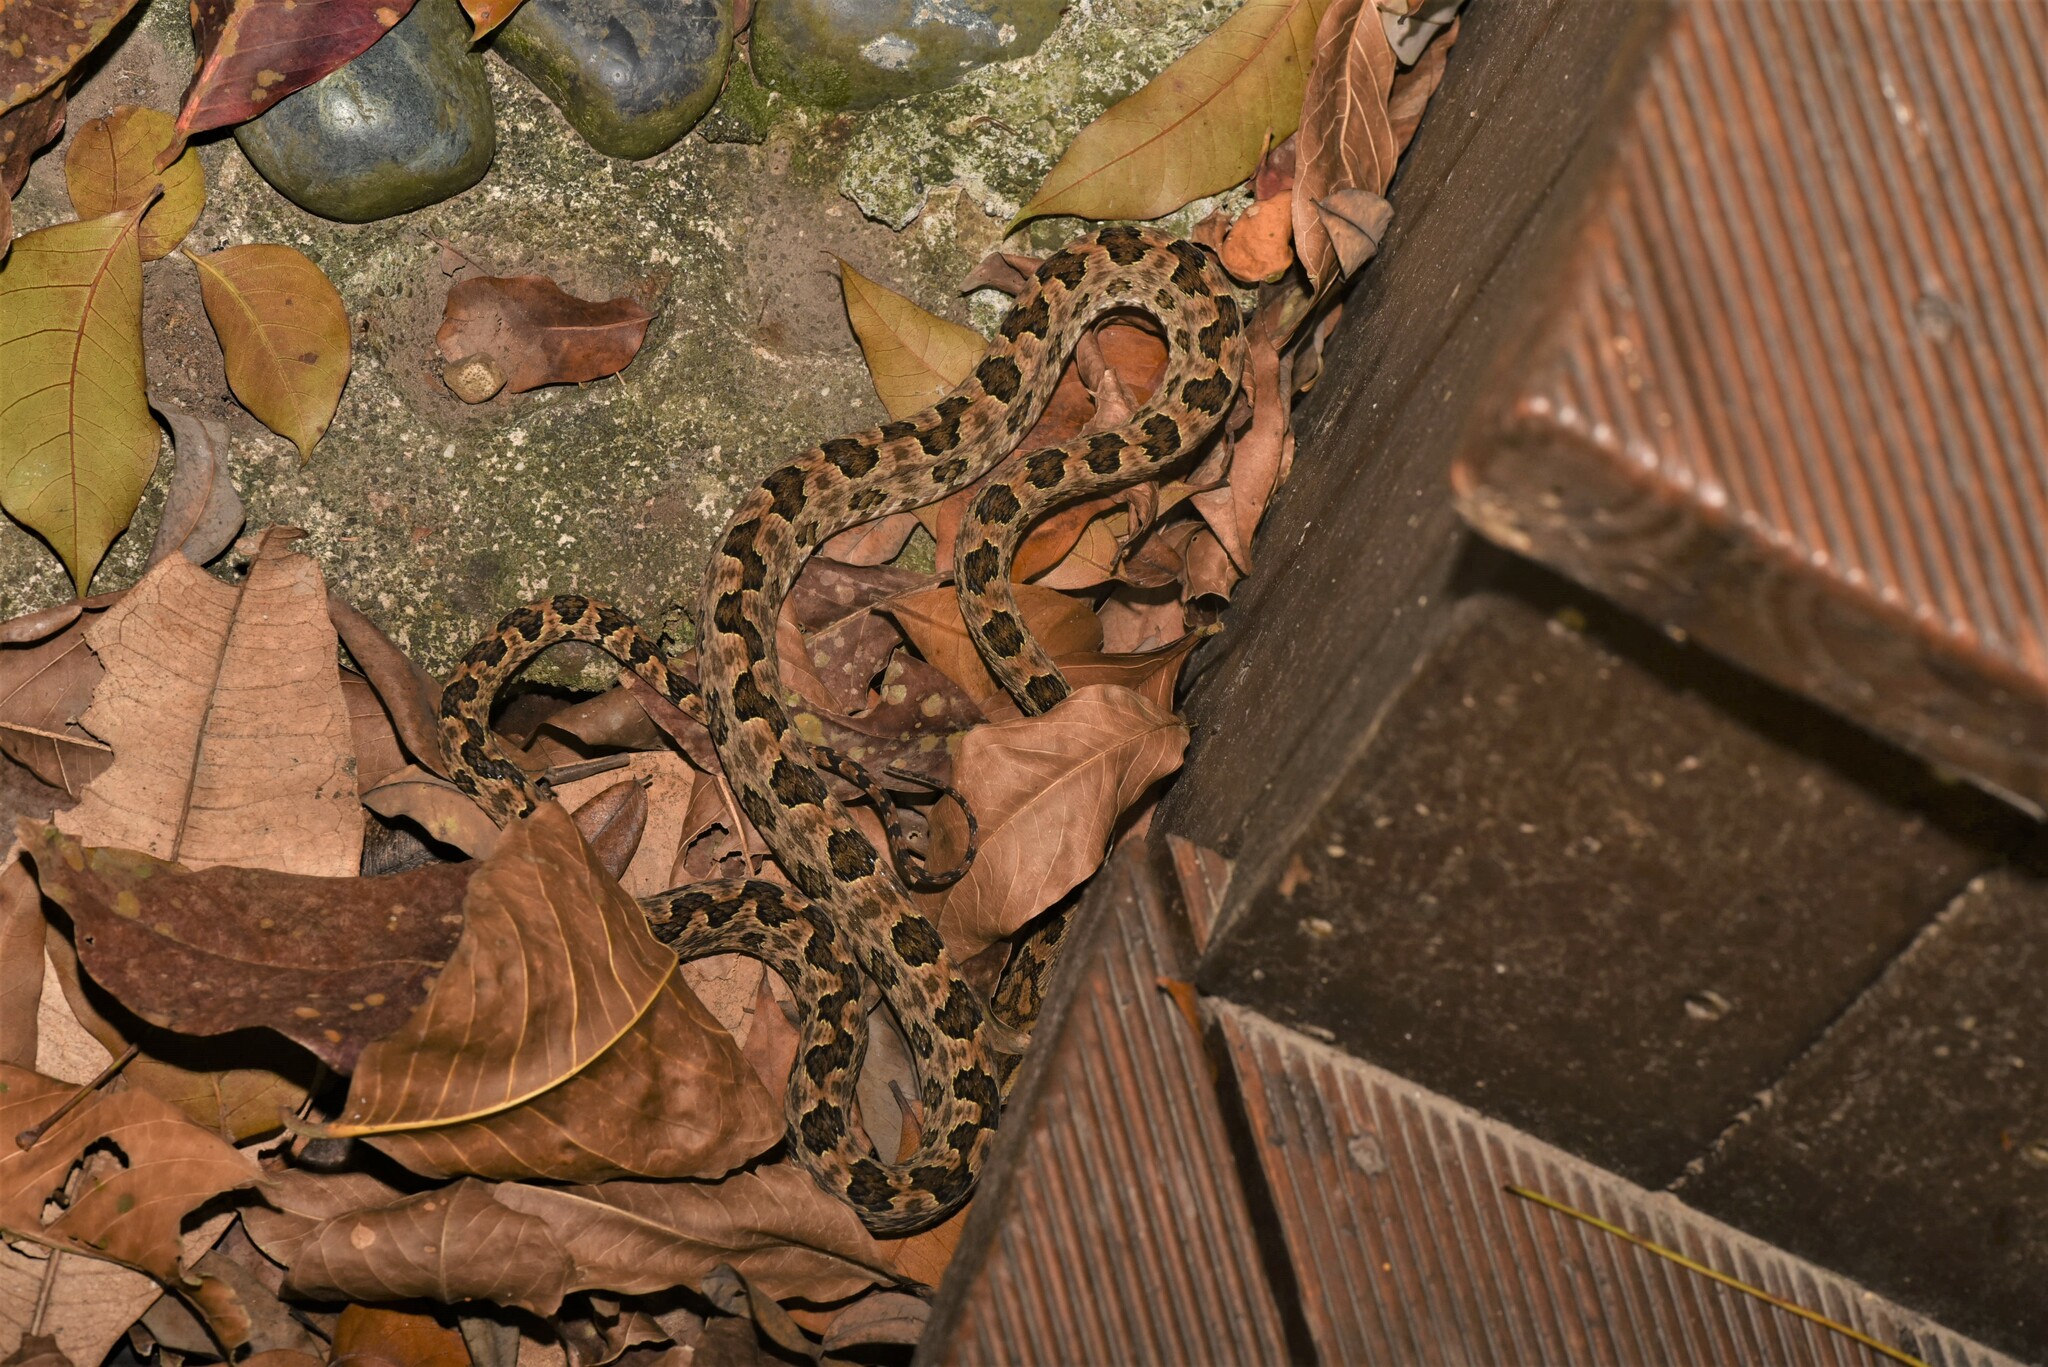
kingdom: Animalia
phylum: Chordata
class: Squamata
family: Viperidae
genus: Protobothrops
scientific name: Protobothrops mucrosquamatus
